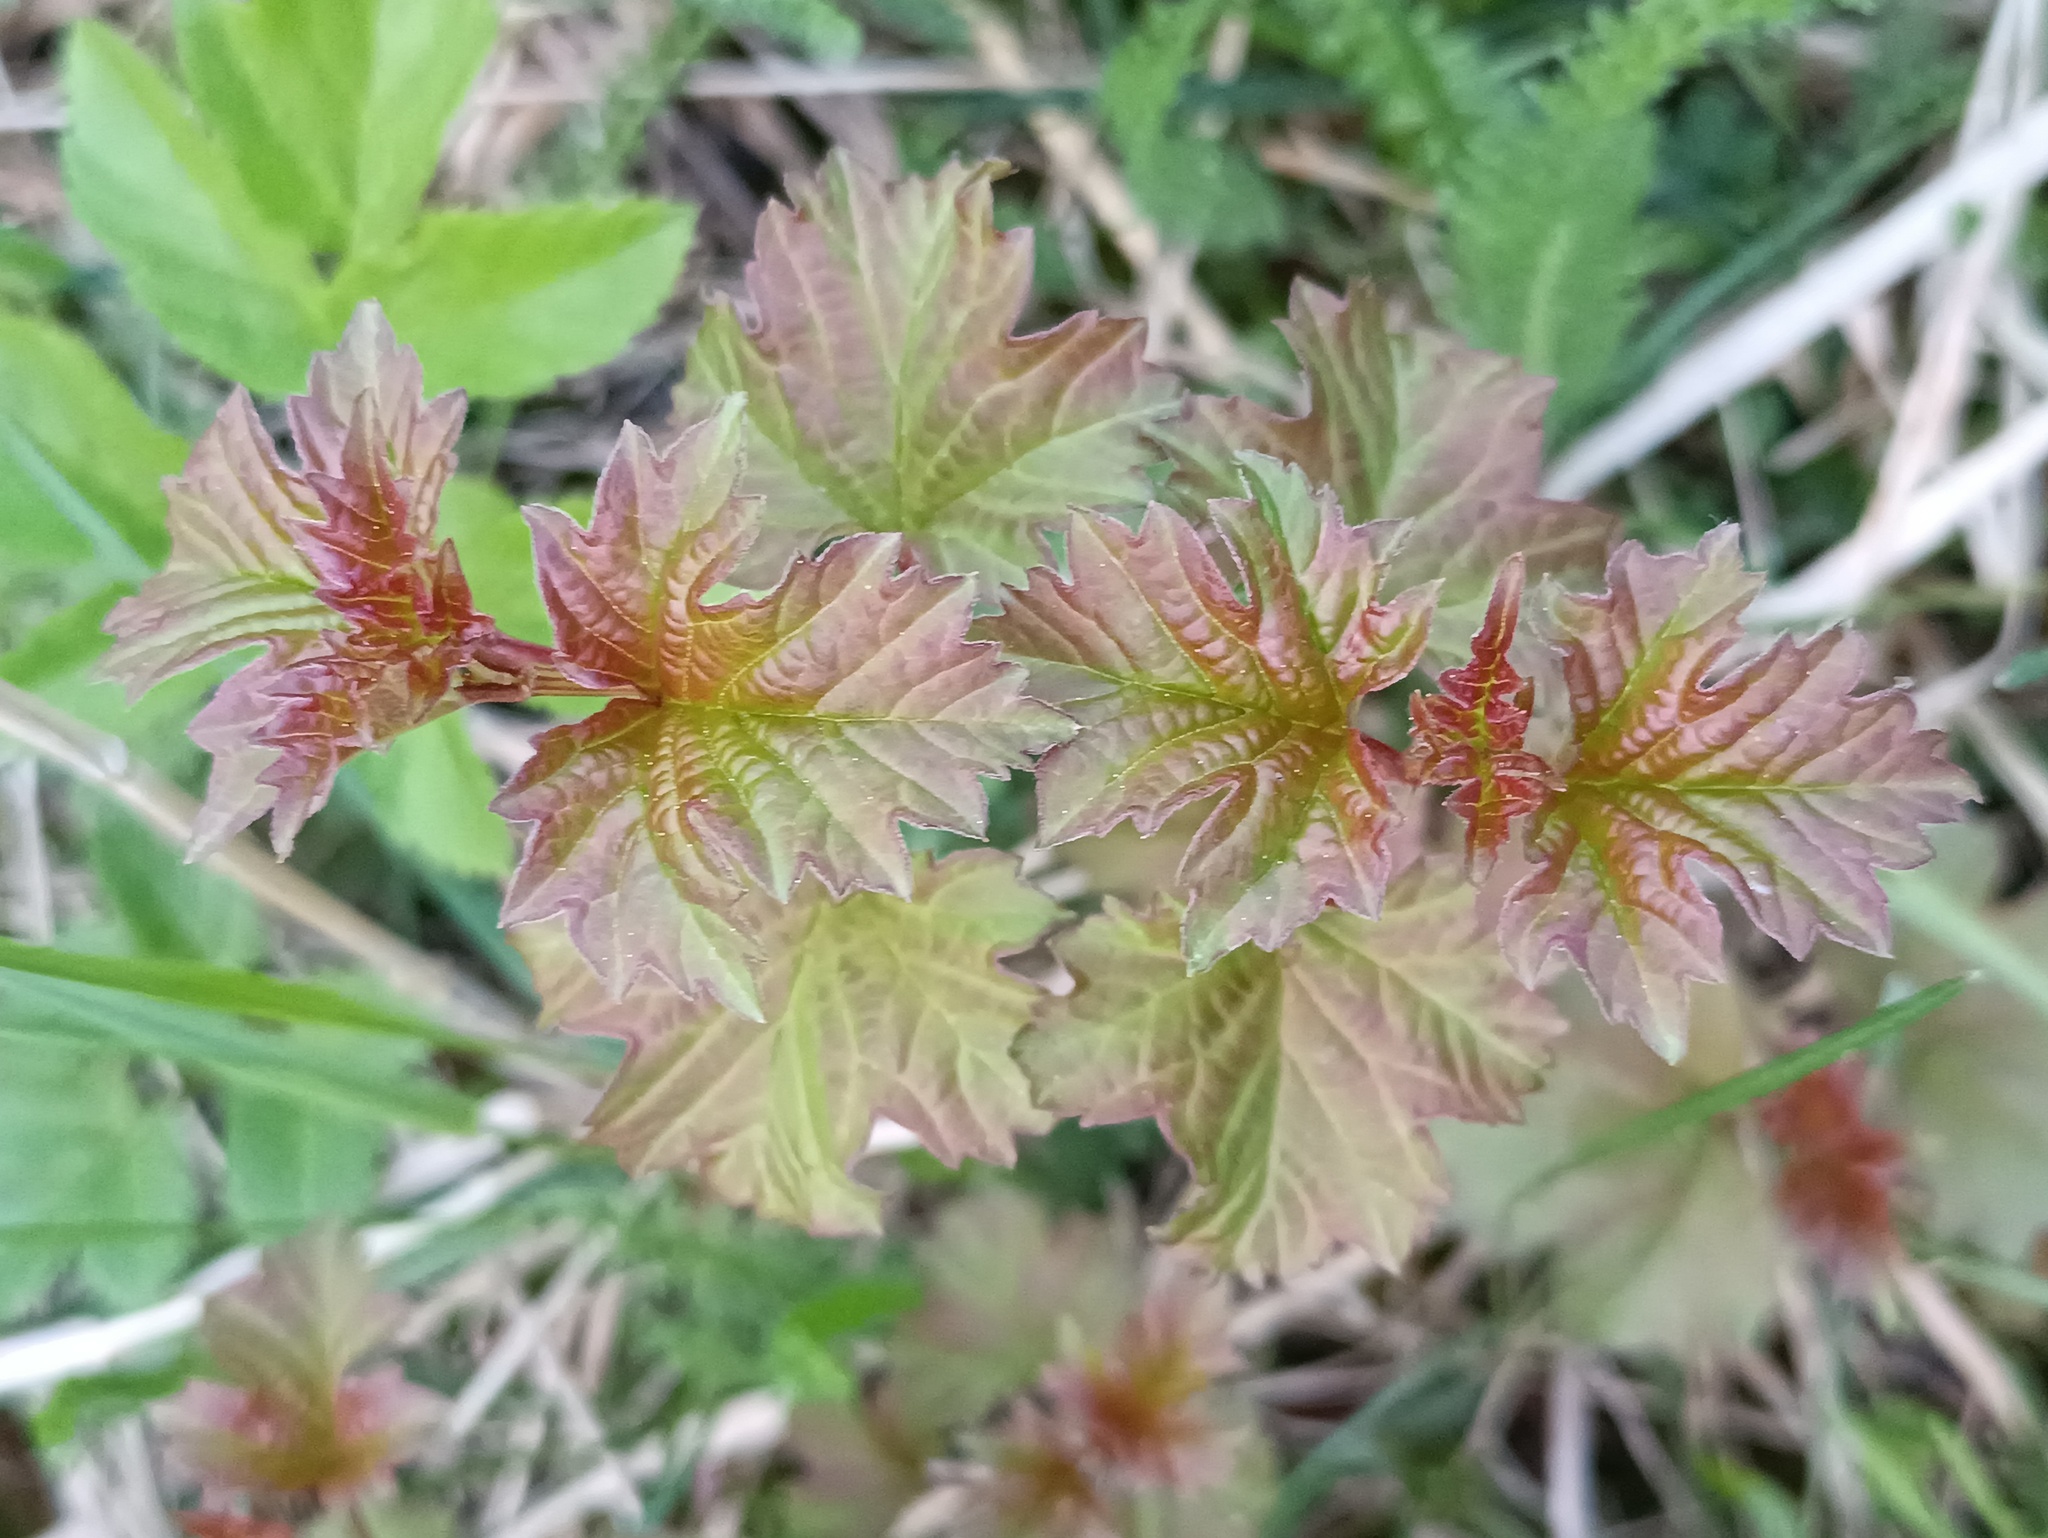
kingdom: Plantae
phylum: Tracheophyta
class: Magnoliopsida
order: Dipsacales
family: Viburnaceae
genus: Viburnum
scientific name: Viburnum opulus
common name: Guelder-rose
